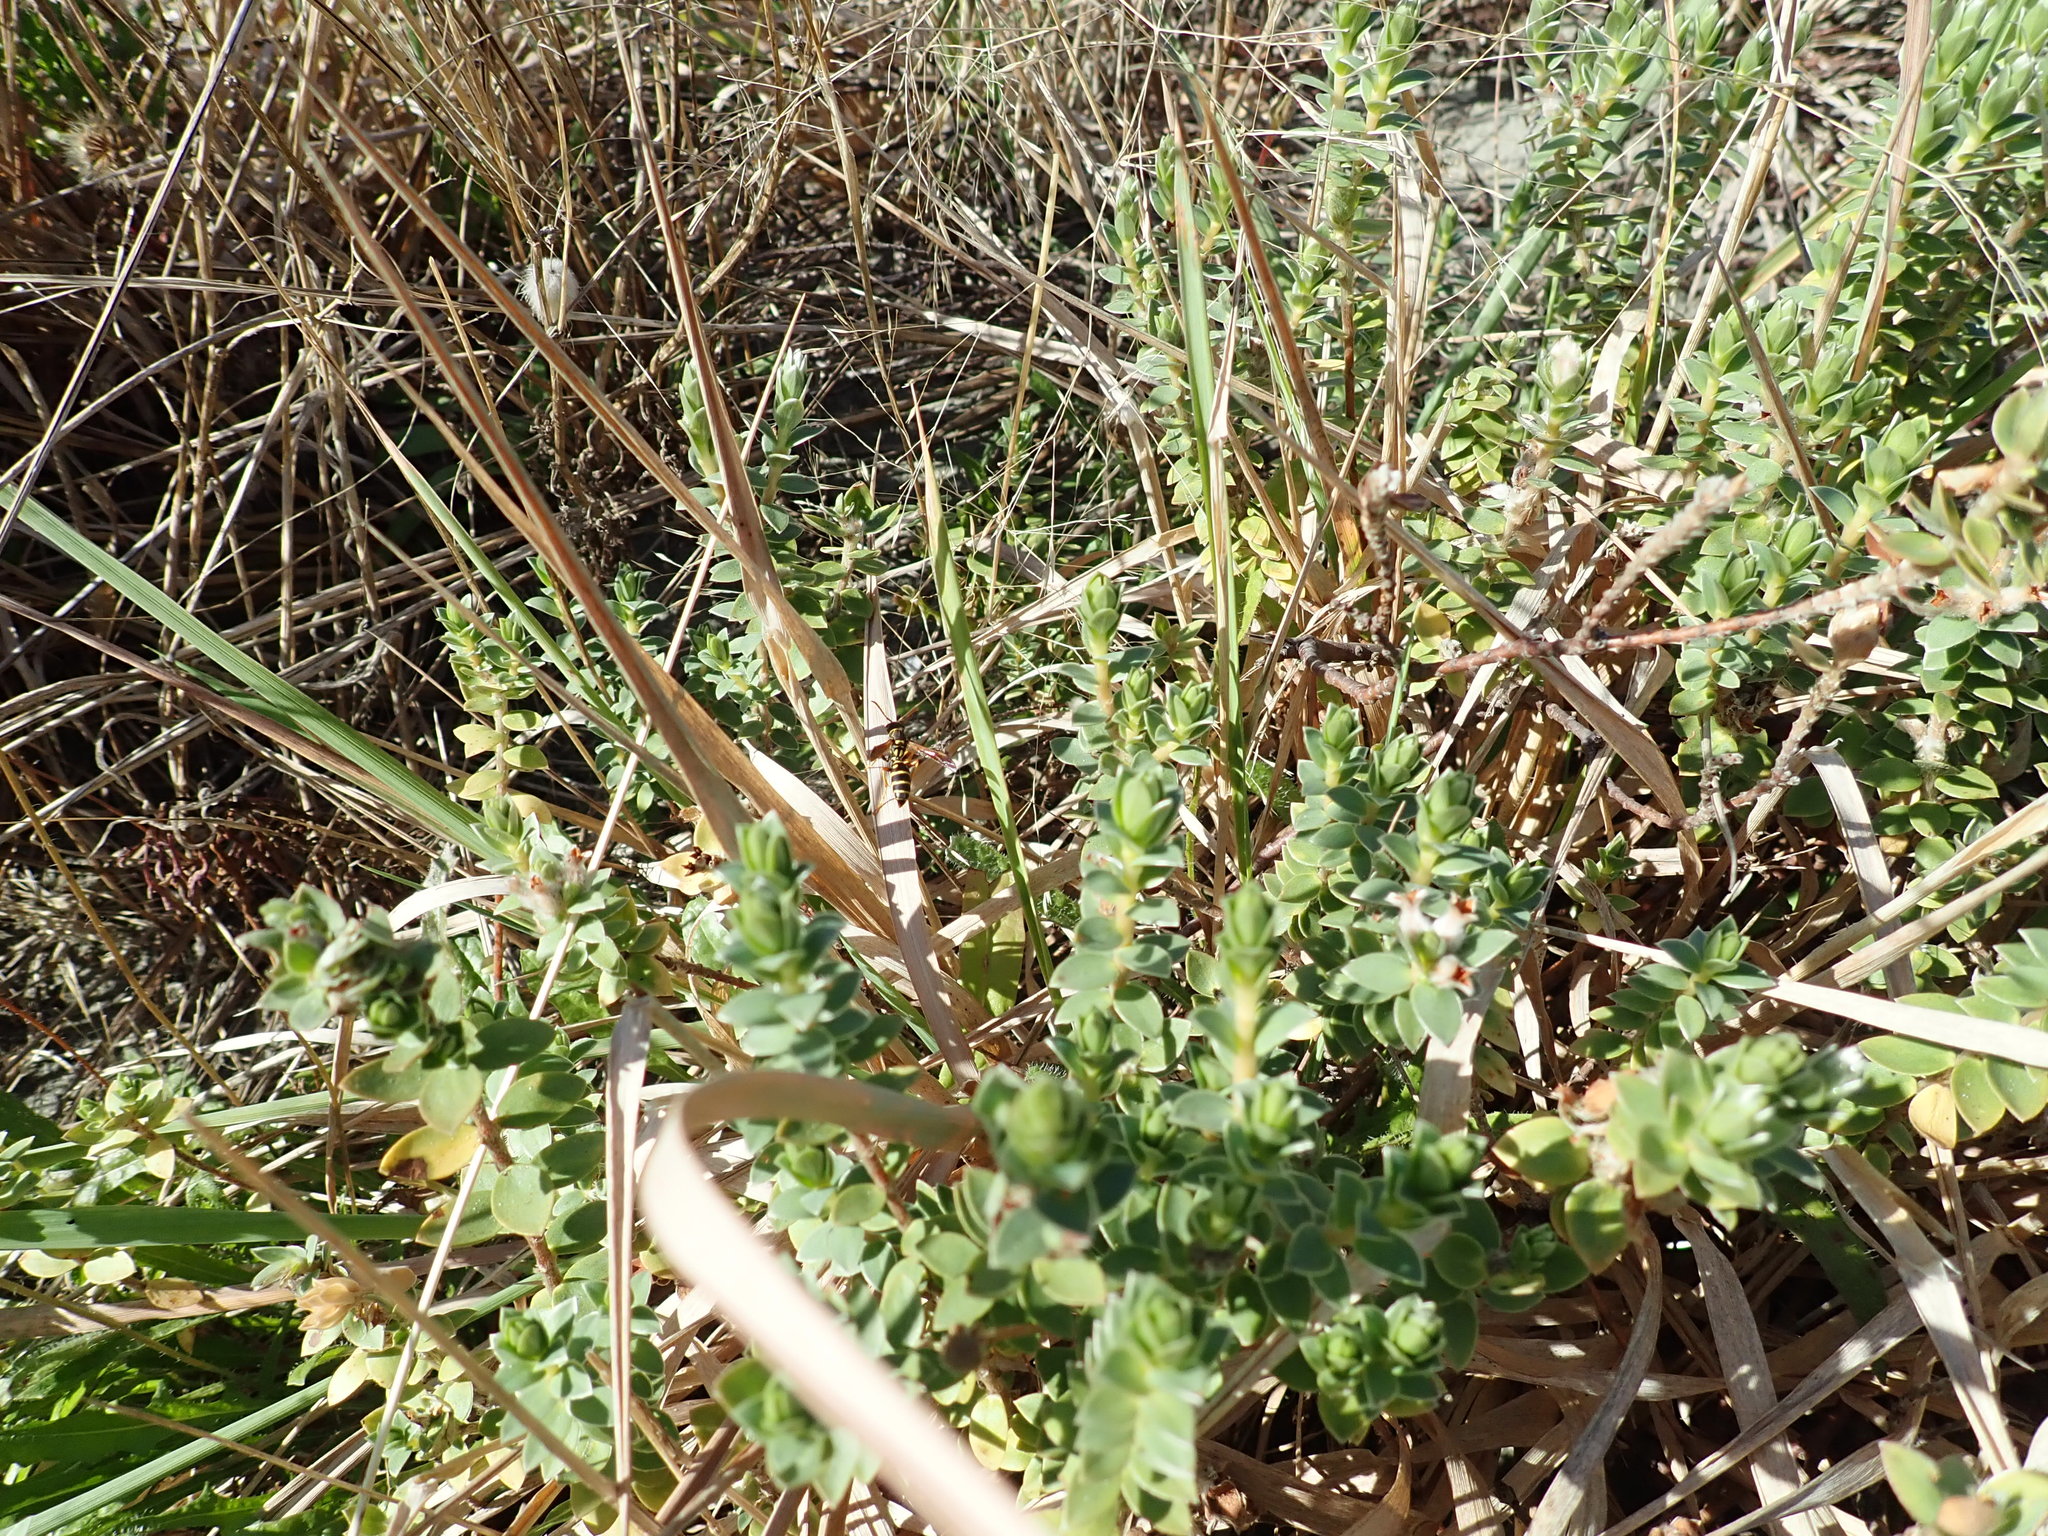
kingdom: Animalia
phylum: Arthropoda
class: Insecta
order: Hymenoptera
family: Eumenidae
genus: Polistes
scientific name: Polistes chinensis
